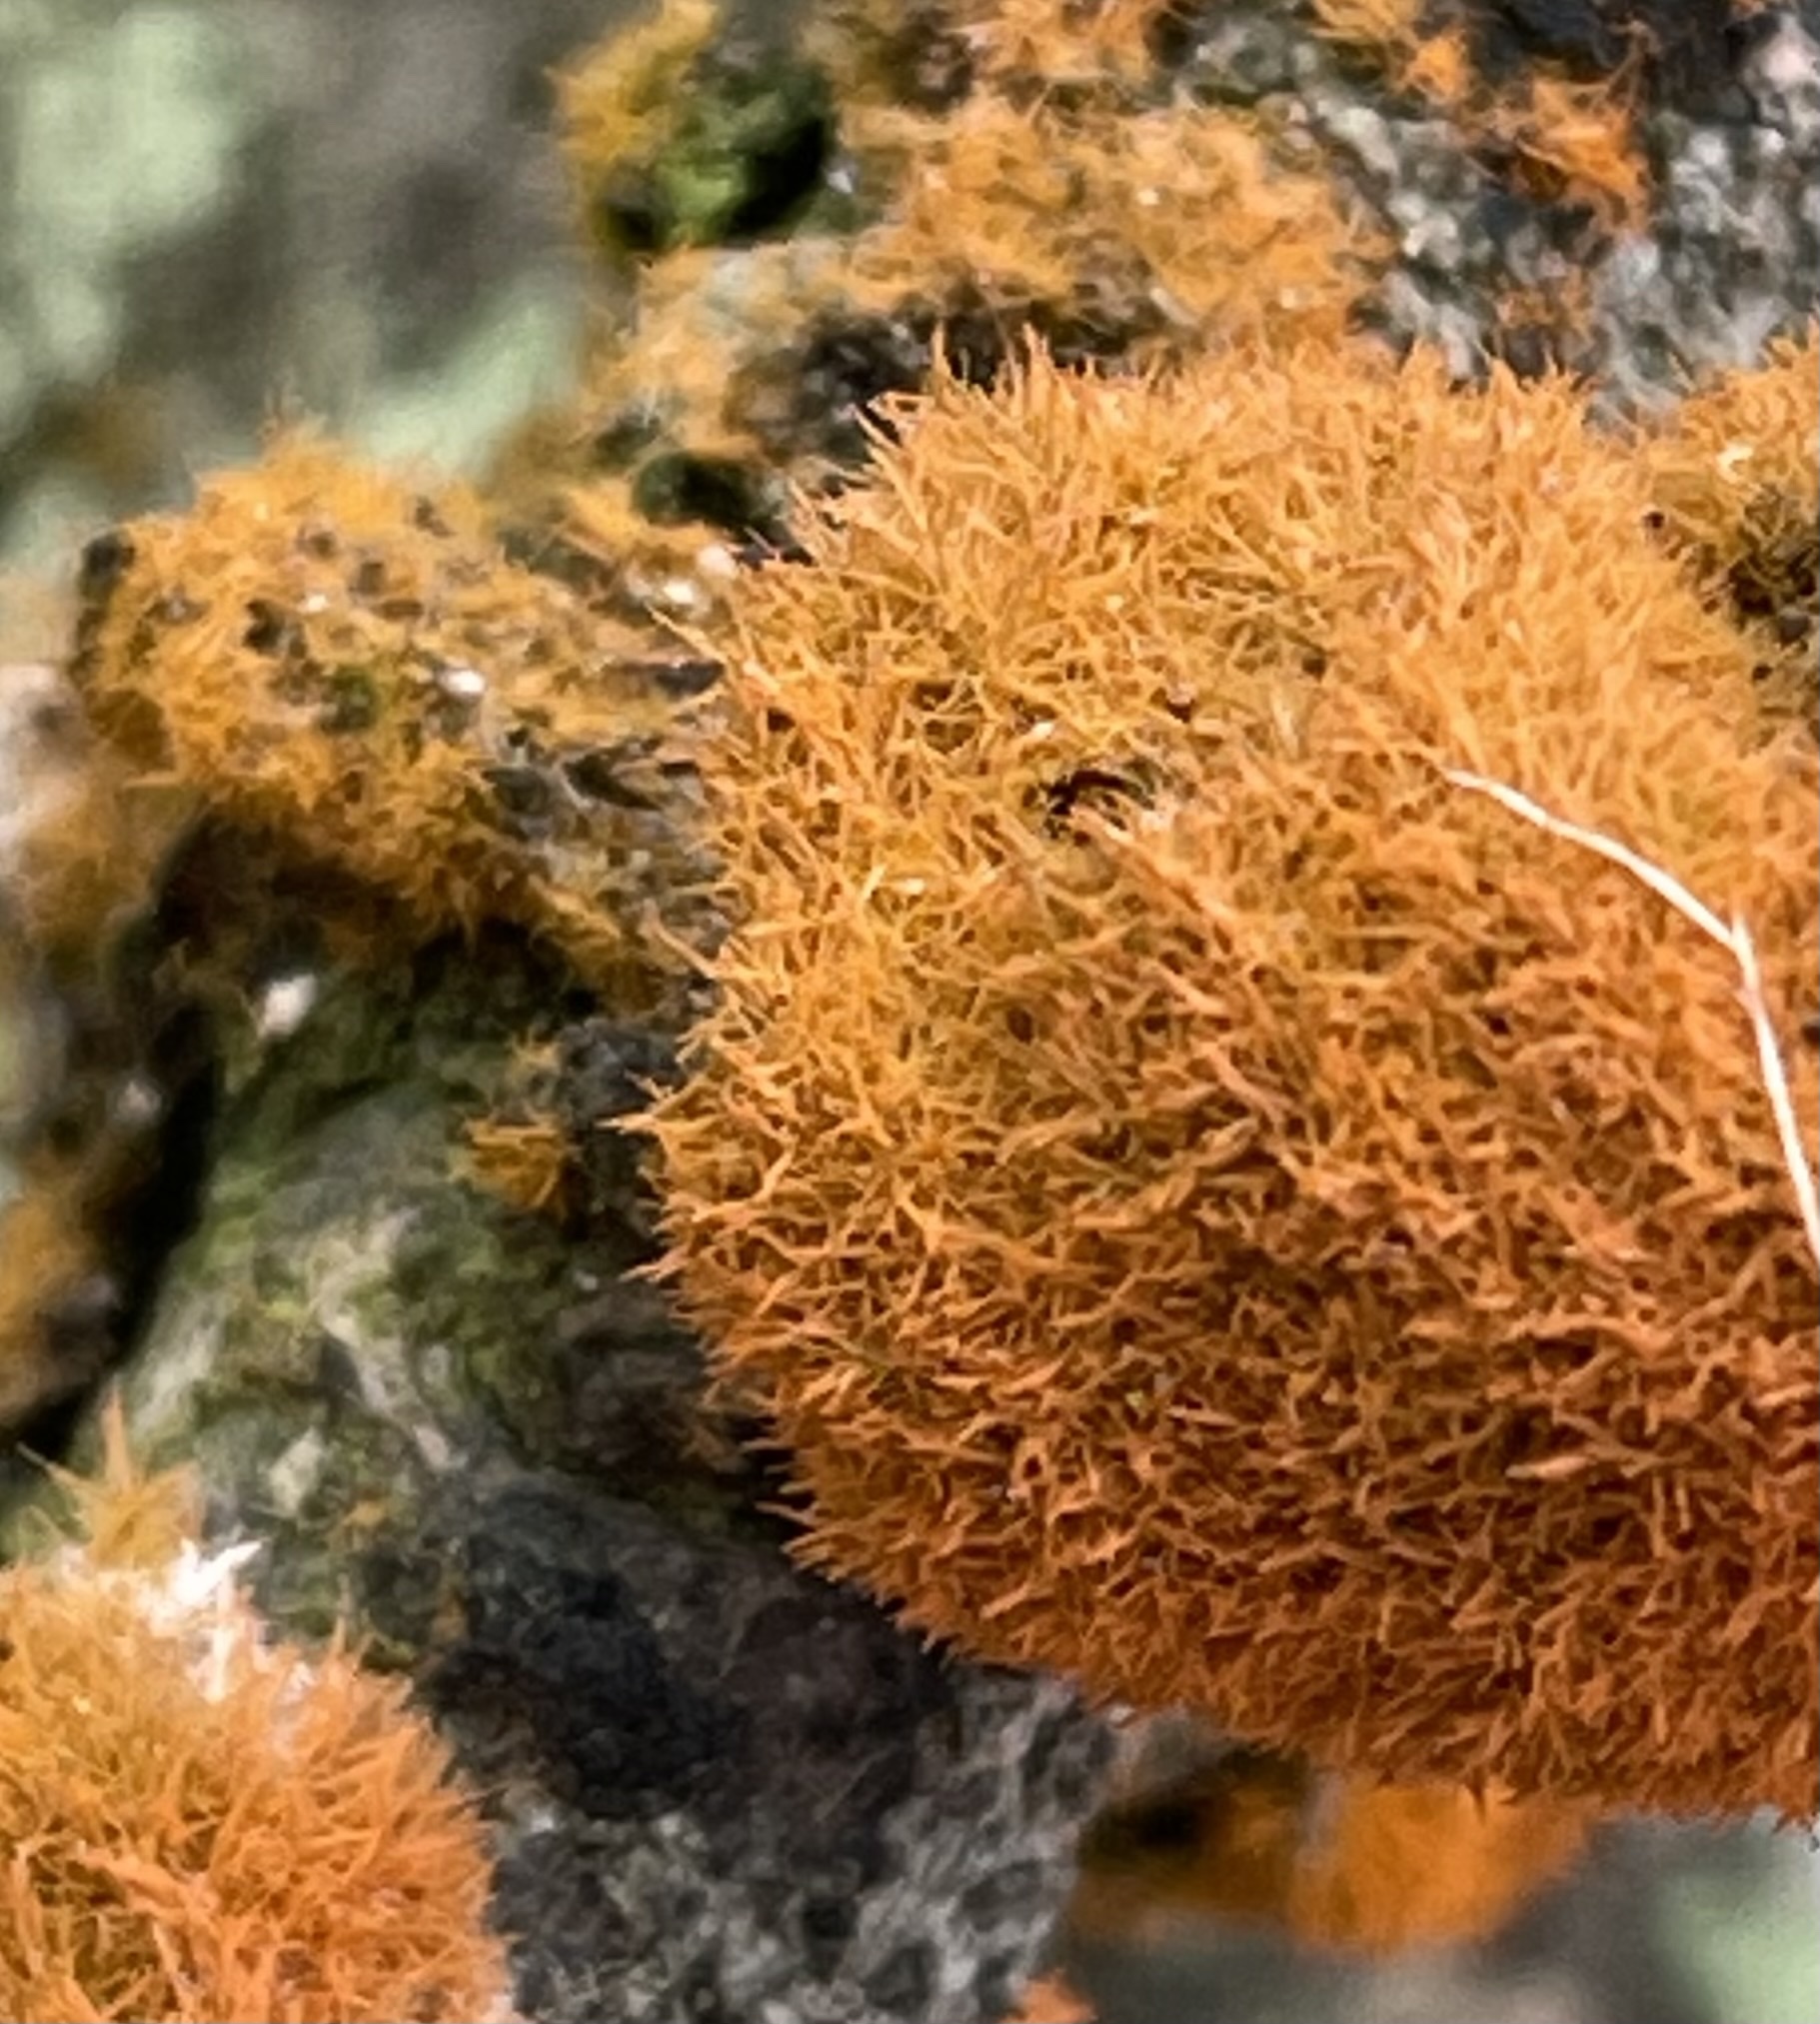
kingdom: Plantae
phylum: Chlorophyta
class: Ulvophyceae
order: Trentepohliales
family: Trentepohliaceae
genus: Trentepohlia
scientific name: Trentepohlia aurea
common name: Orange rock hair
